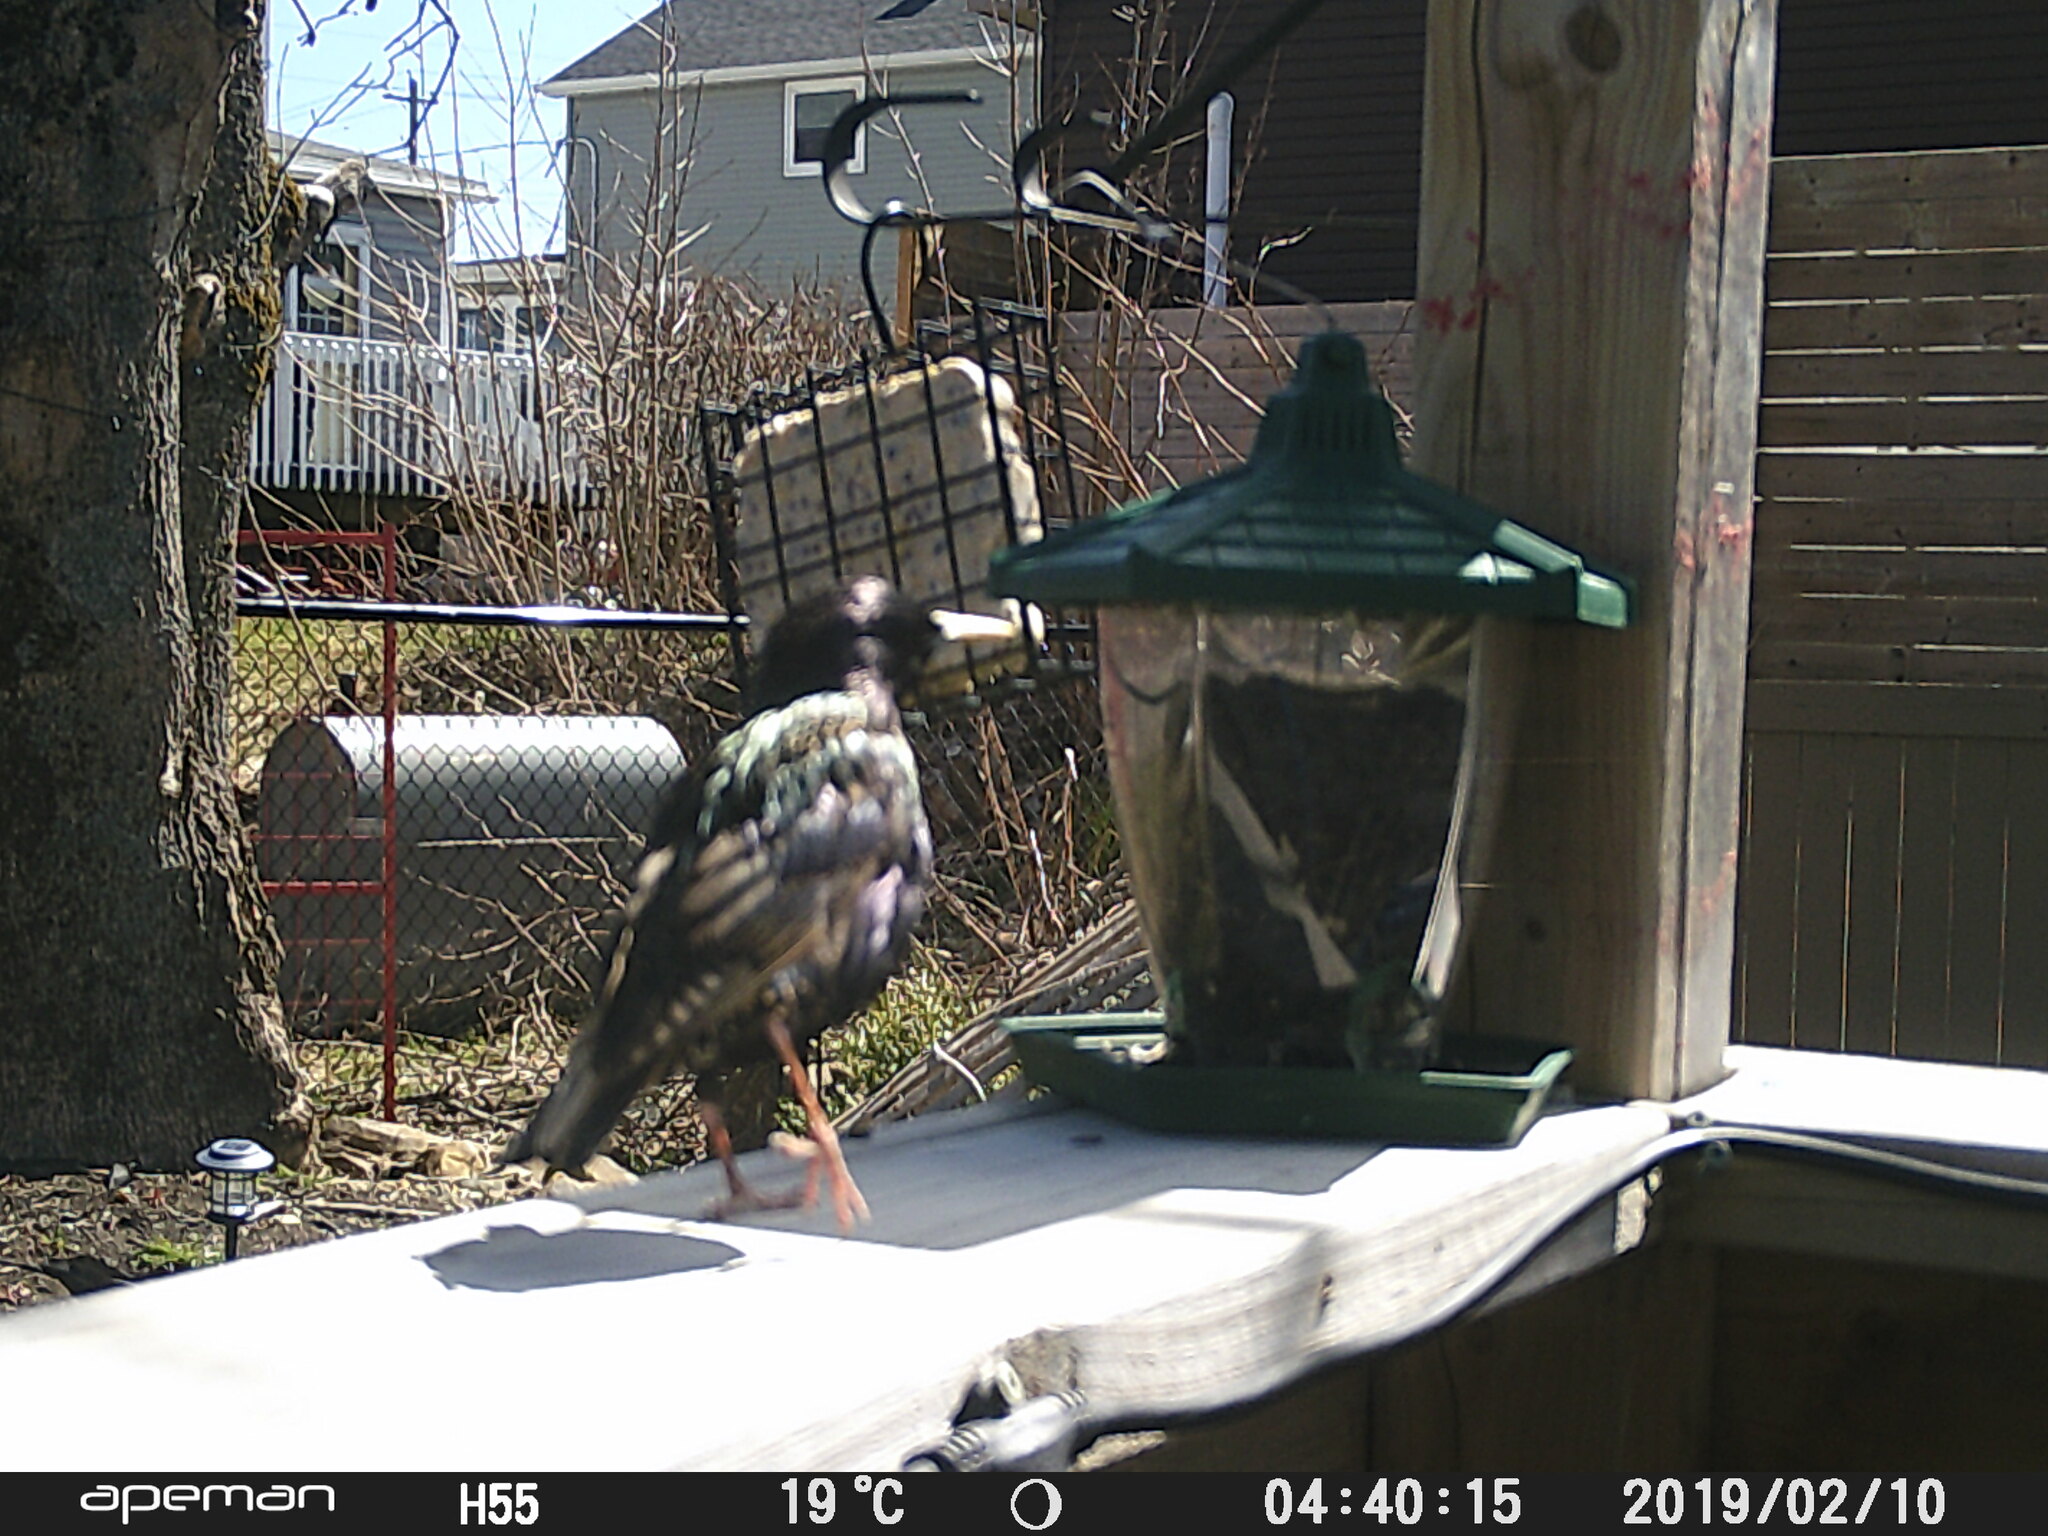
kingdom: Animalia
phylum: Chordata
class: Aves
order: Passeriformes
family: Sturnidae
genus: Sturnus
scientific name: Sturnus vulgaris
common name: Common starling
